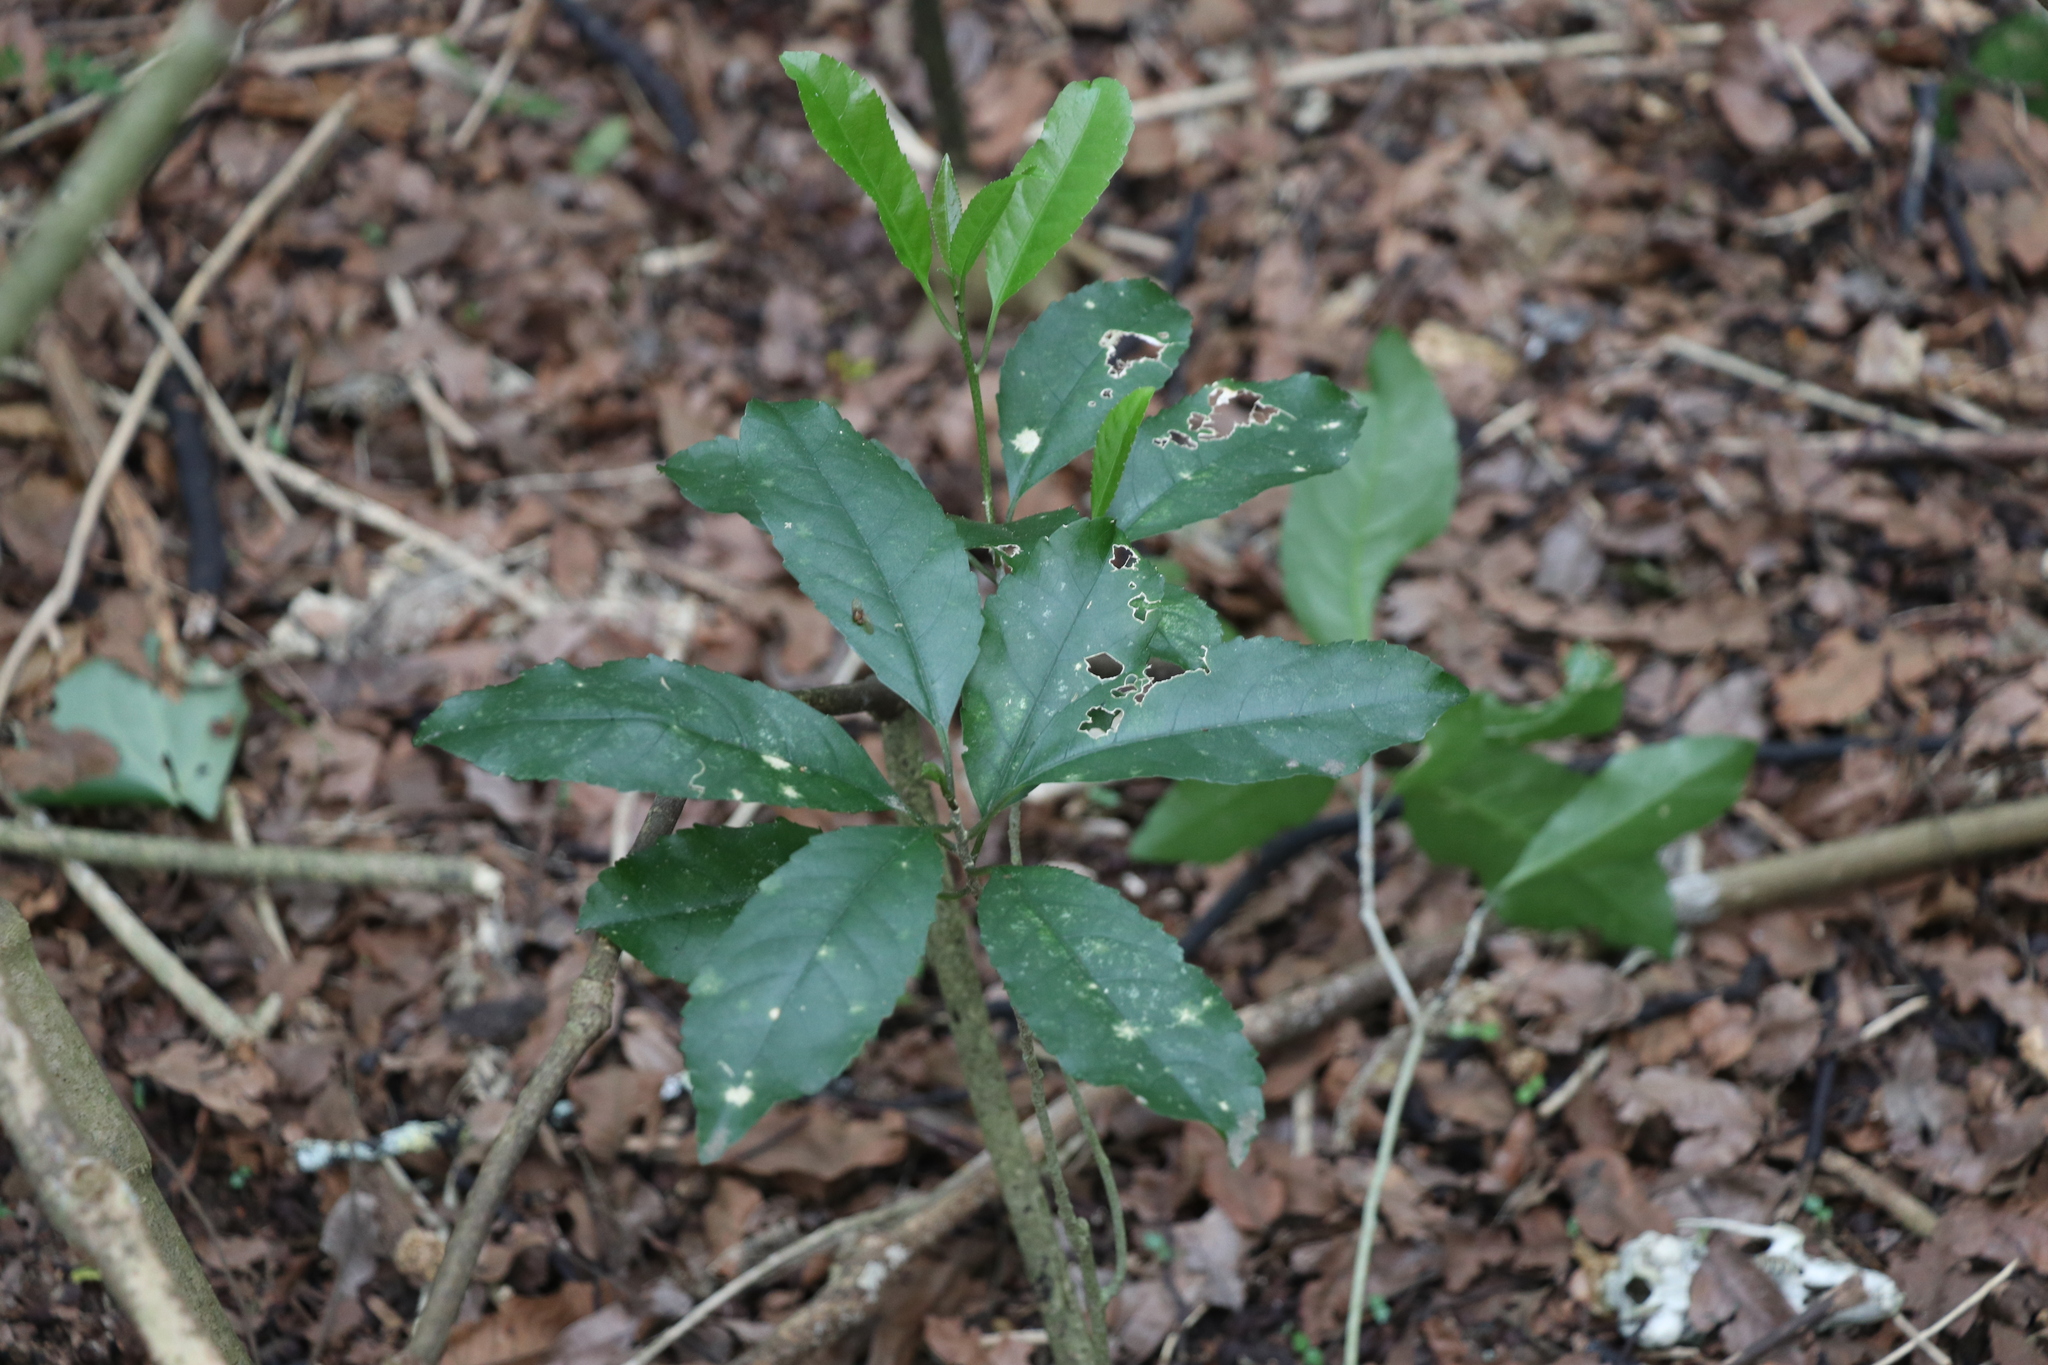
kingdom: Plantae
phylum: Tracheophyta
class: Magnoliopsida
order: Malpighiales
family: Violaceae
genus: Melicytus
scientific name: Melicytus ramiflorus
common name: Mahoe
